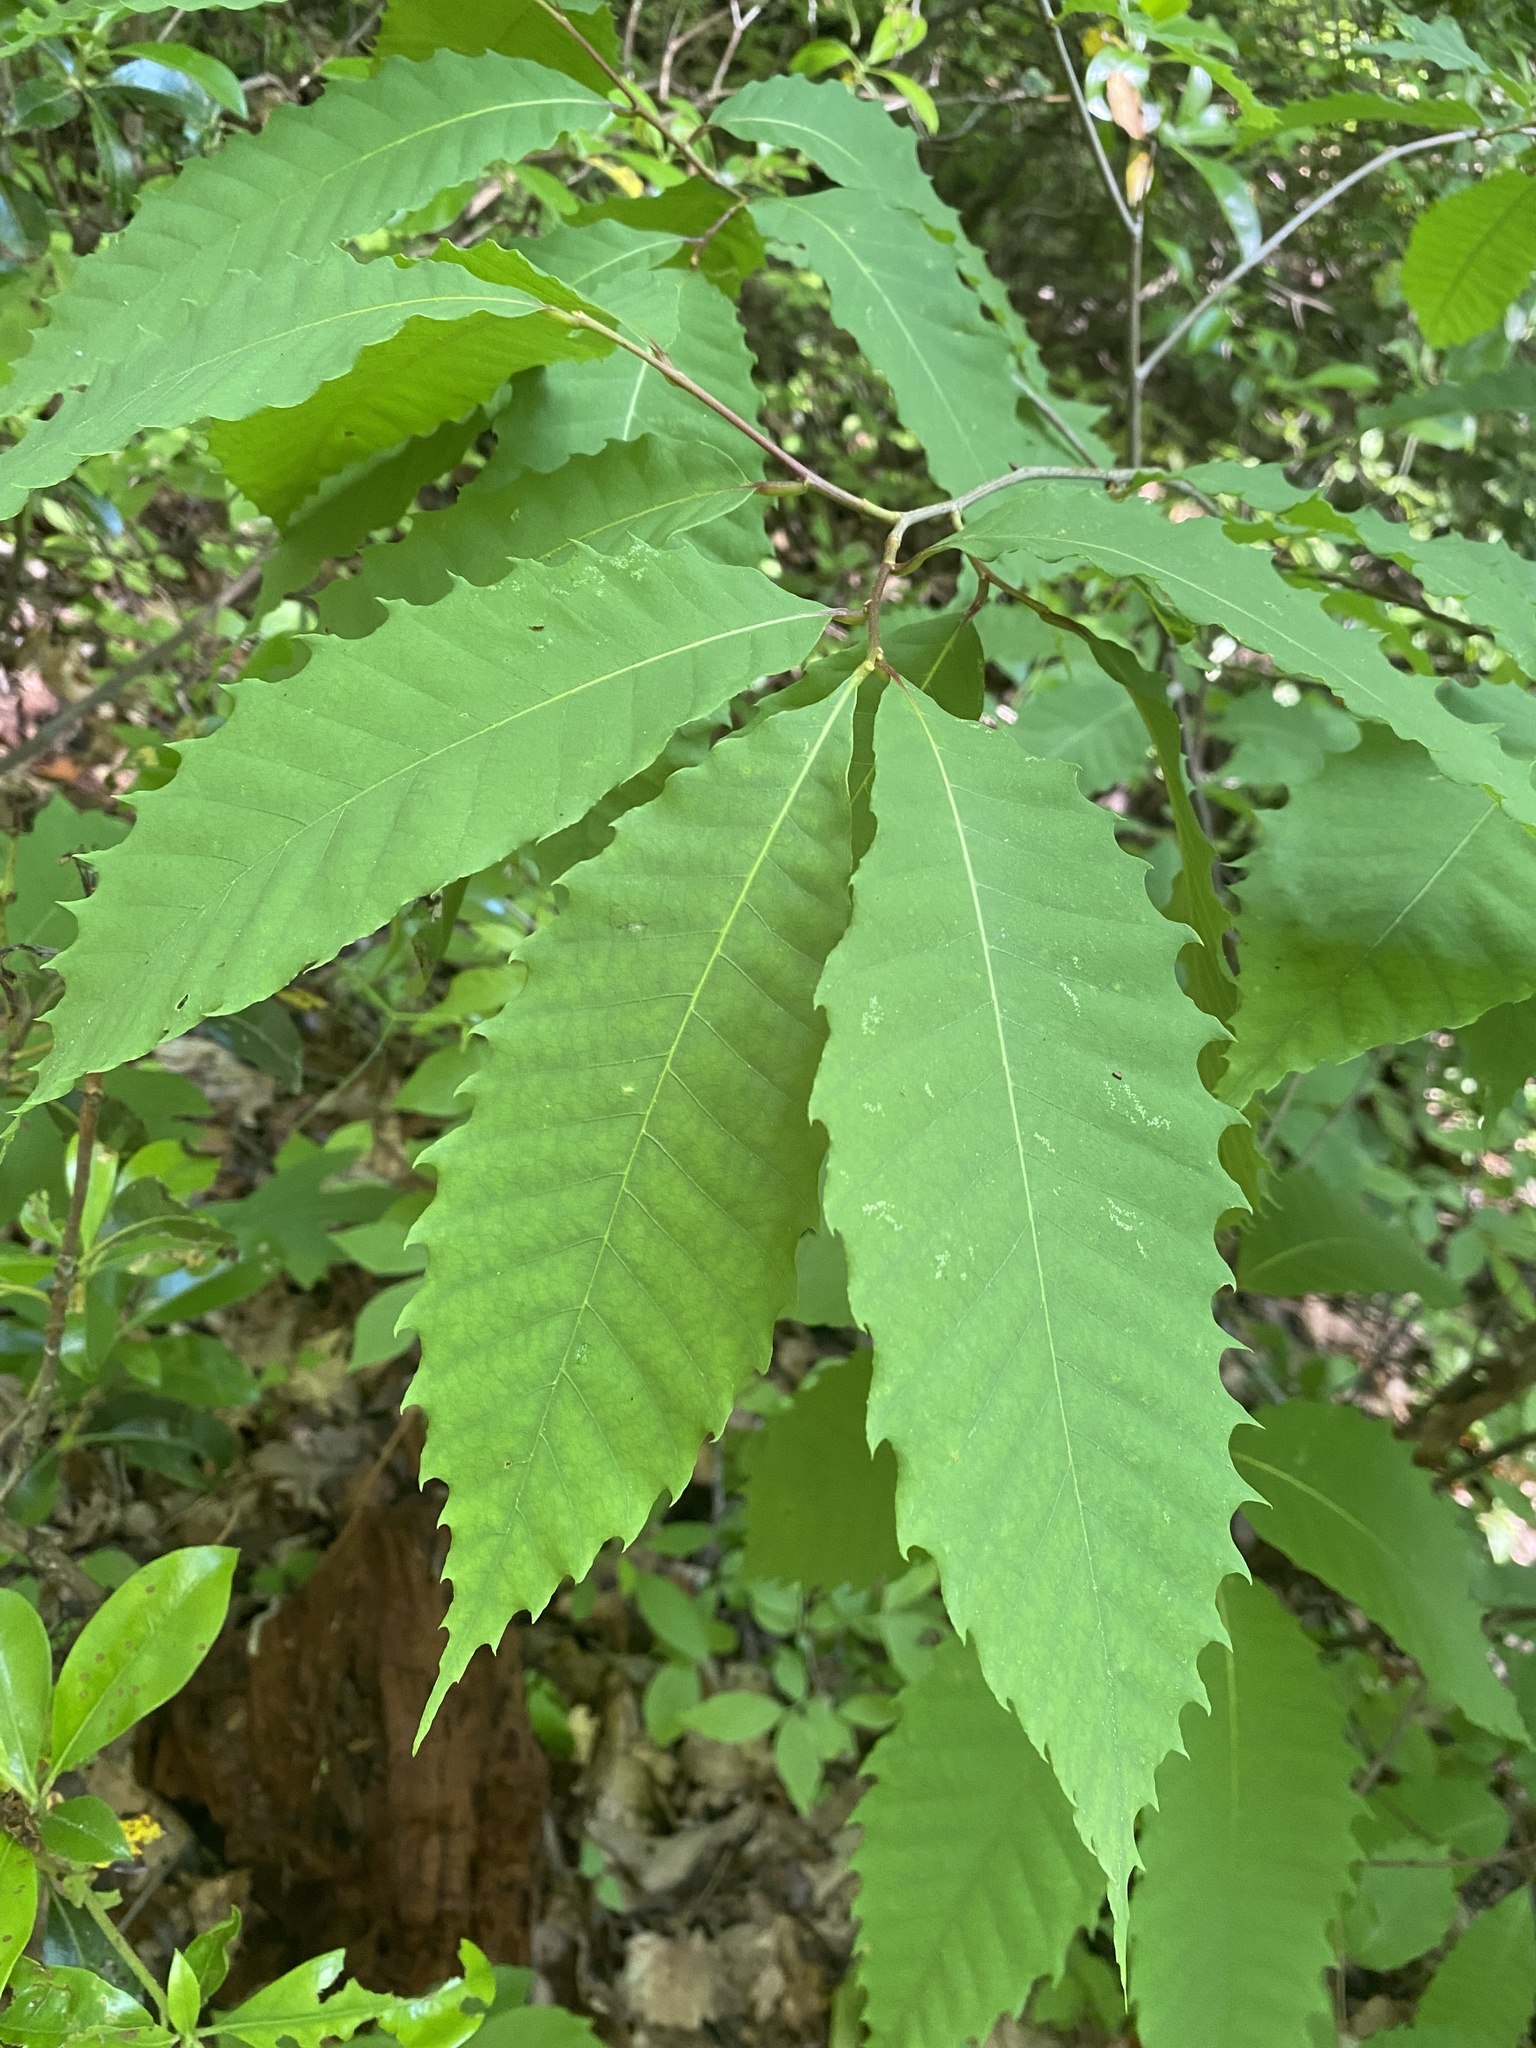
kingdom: Plantae
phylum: Tracheophyta
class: Magnoliopsida
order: Fagales
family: Fagaceae
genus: Castanea
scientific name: Castanea dentata
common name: American chestnut
